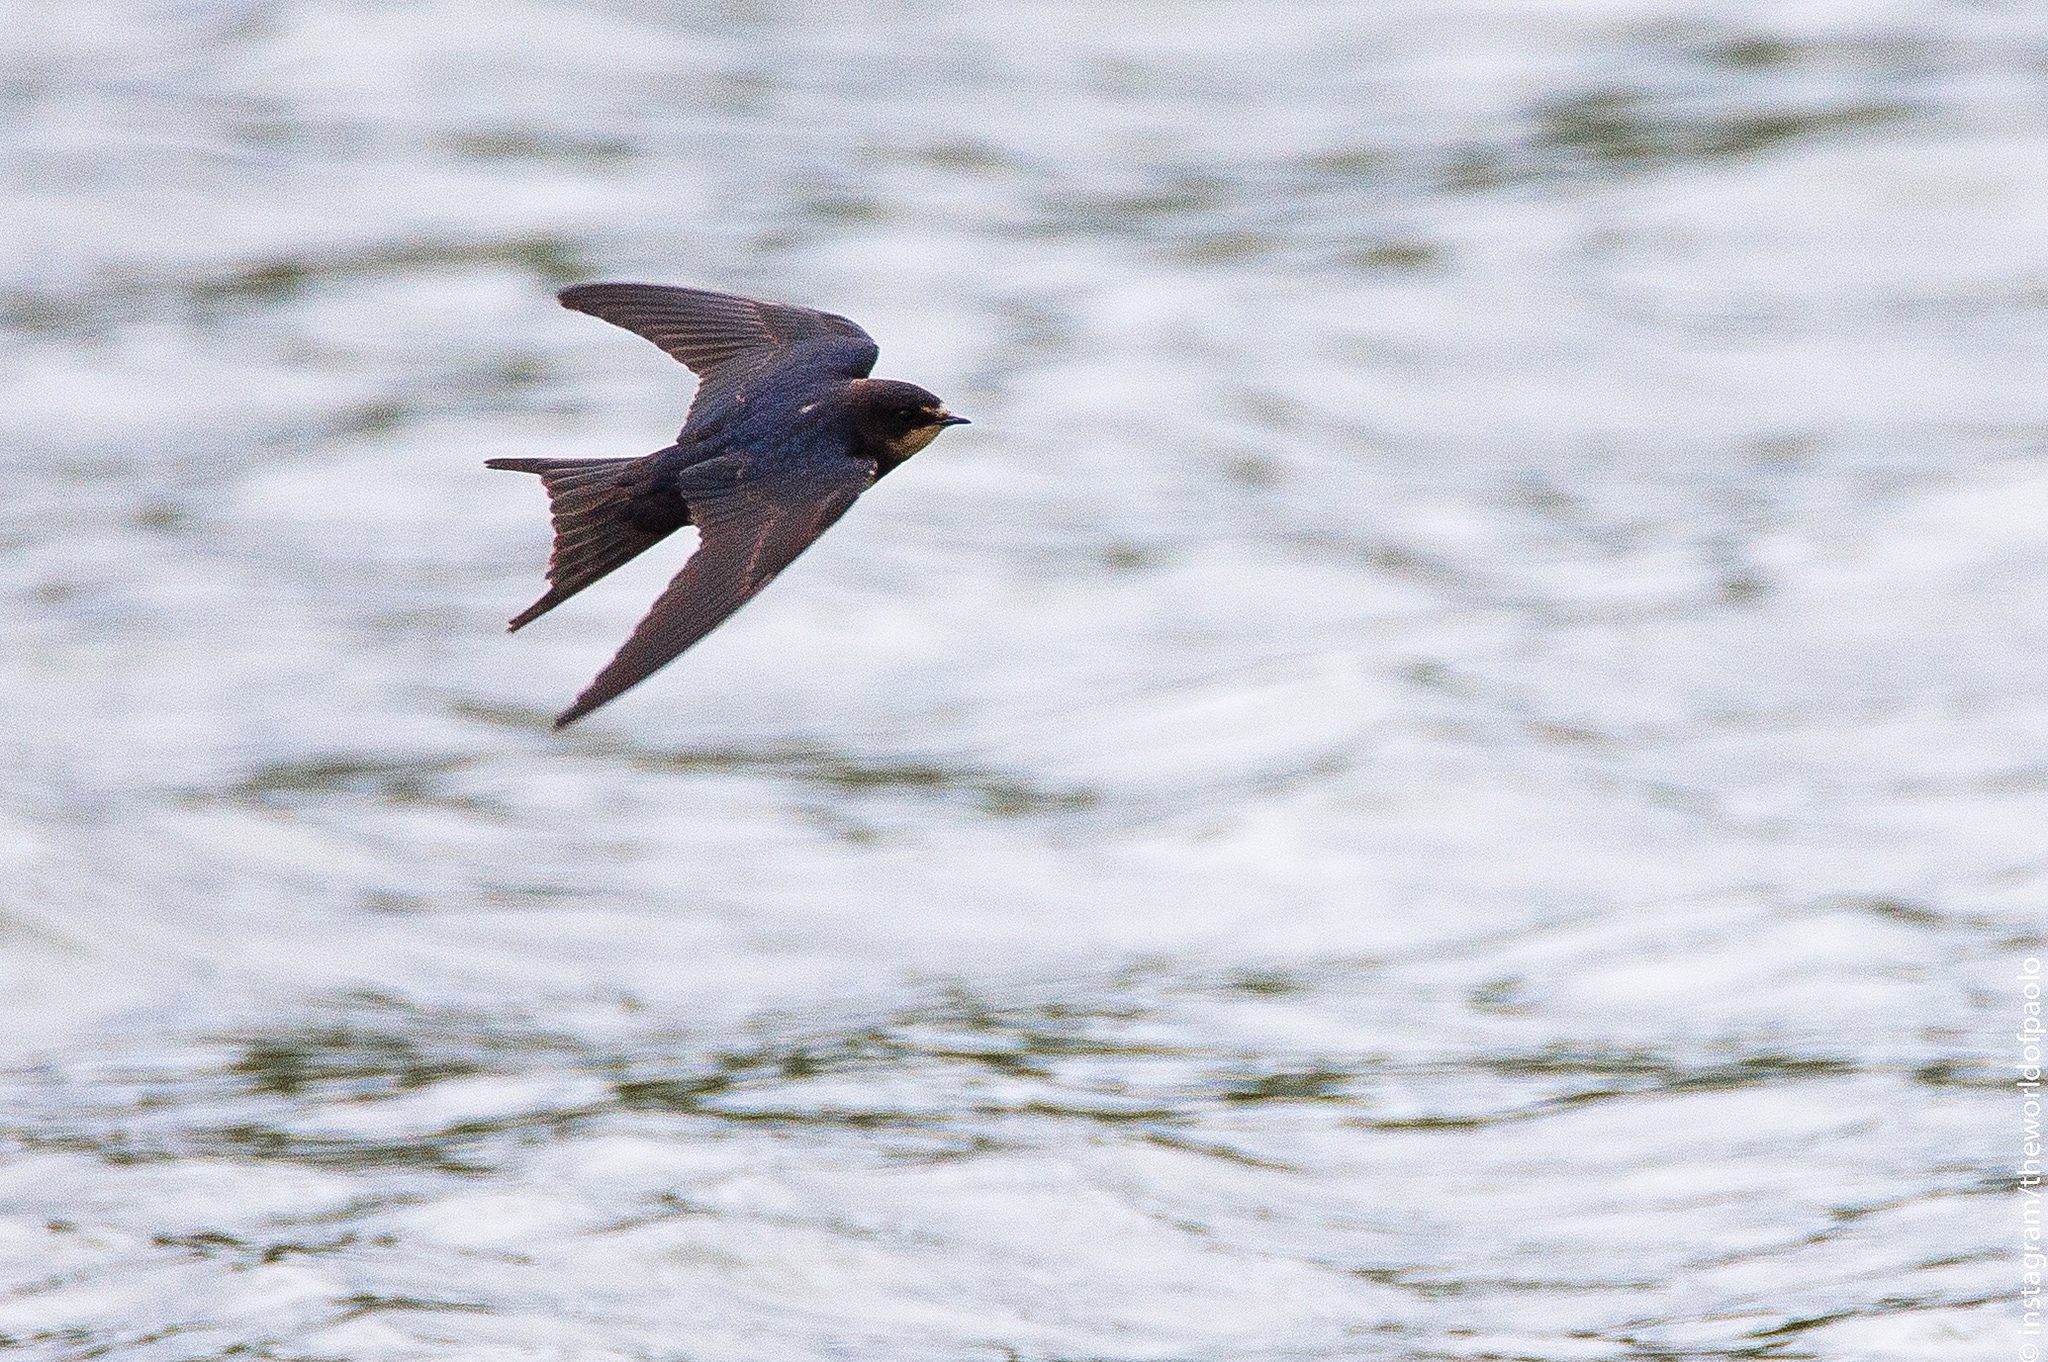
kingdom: Animalia
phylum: Chordata
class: Aves
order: Passeriformes
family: Hirundinidae
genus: Hirundo
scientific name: Hirundo rustica
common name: Barn swallow
